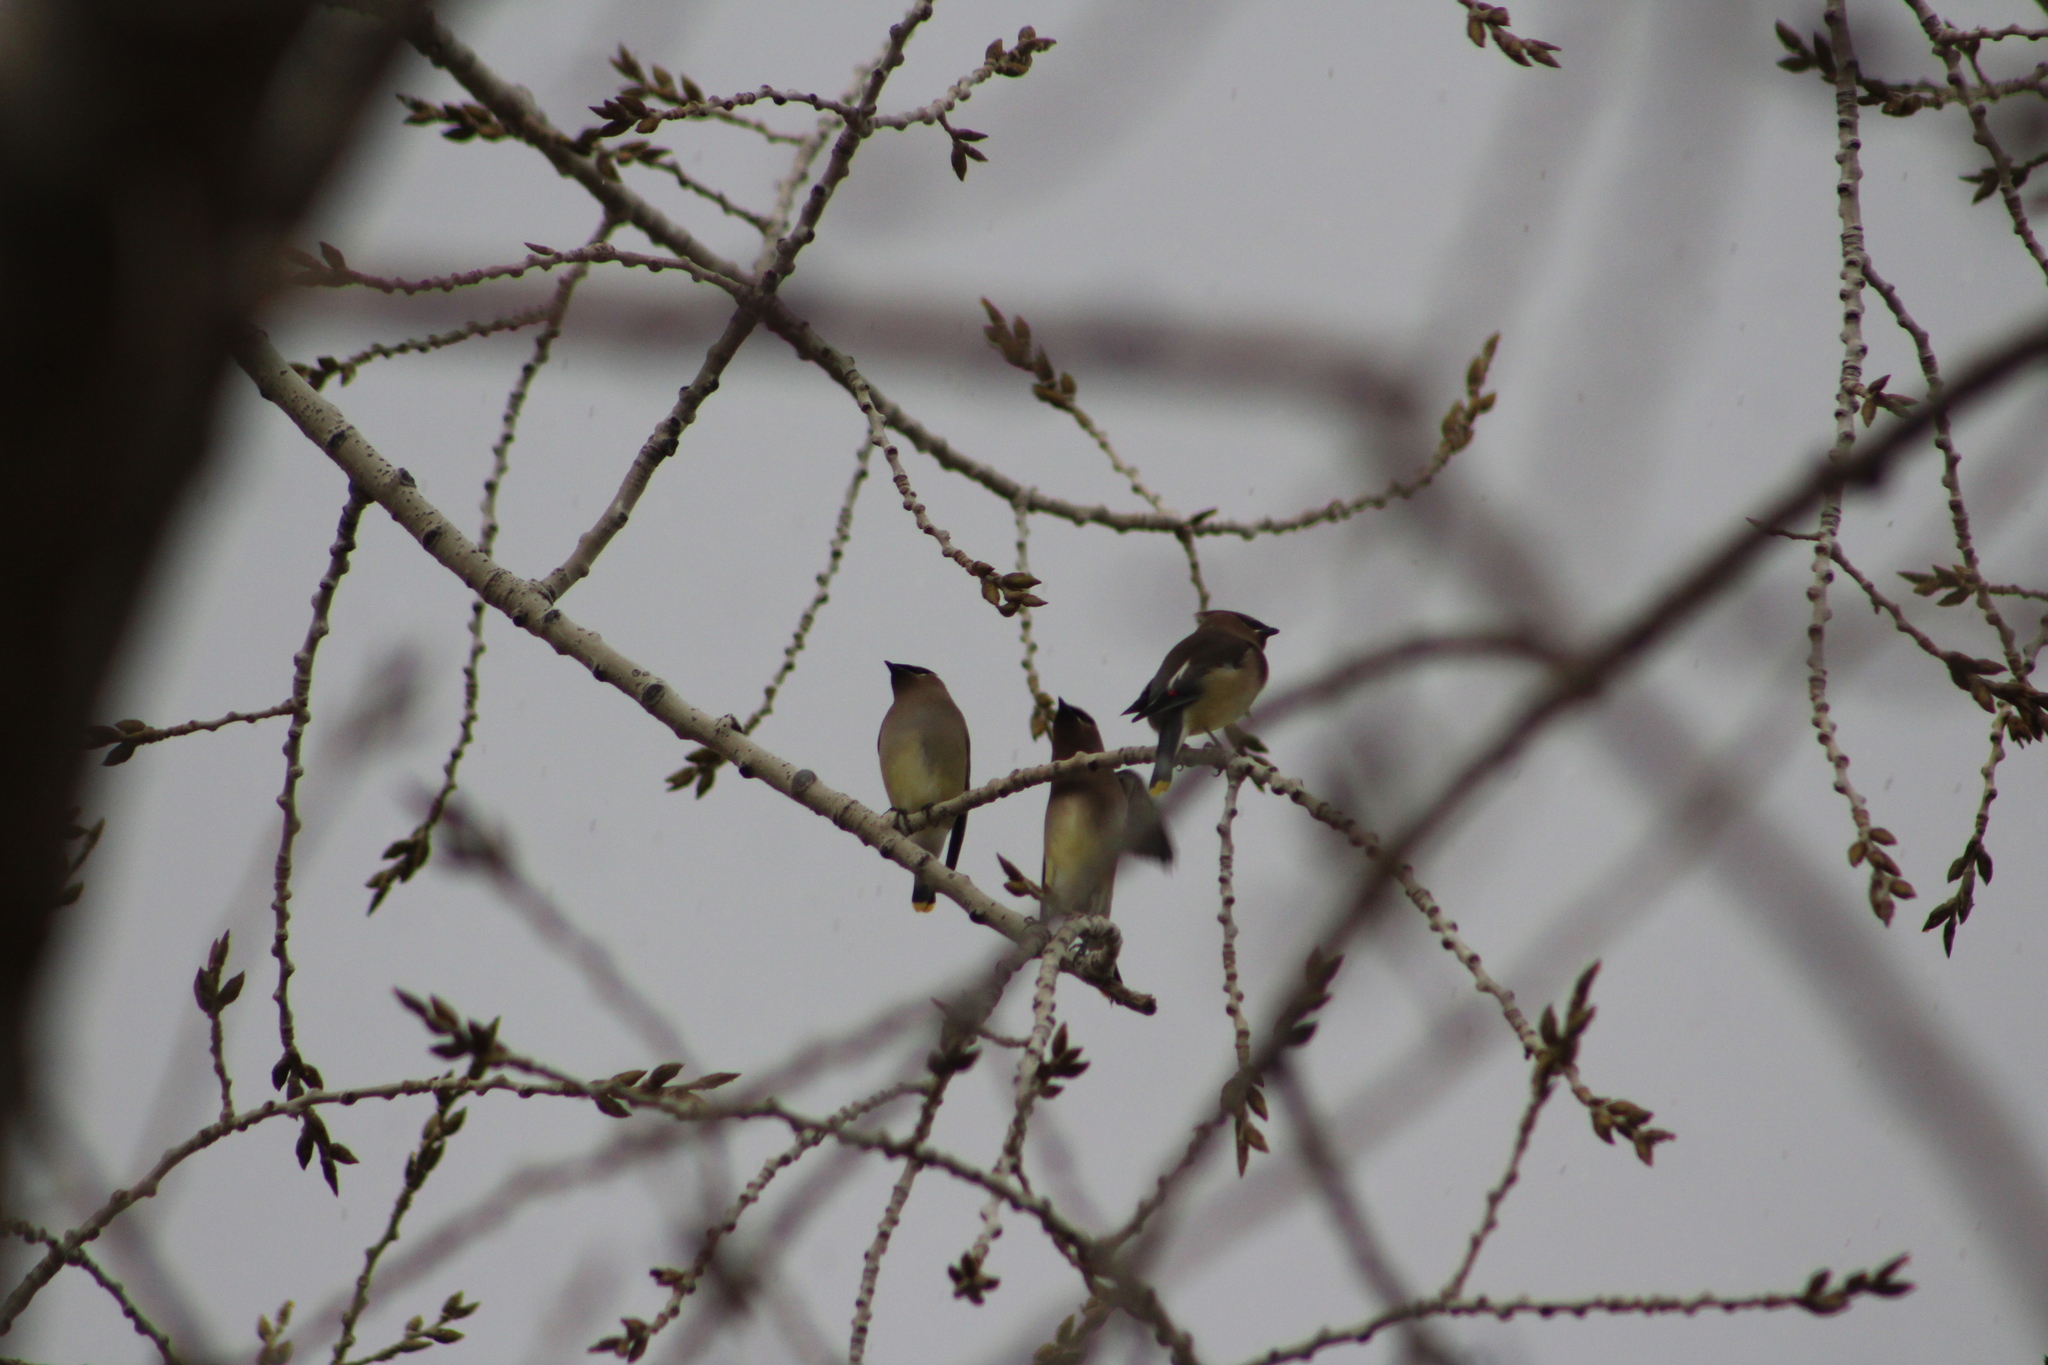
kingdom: Animalia
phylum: Chordata
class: Aves
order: Passeriformes
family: Bombycillidae
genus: Bombycilla
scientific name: Bombycilla cedrorum
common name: Cedar waxwing
